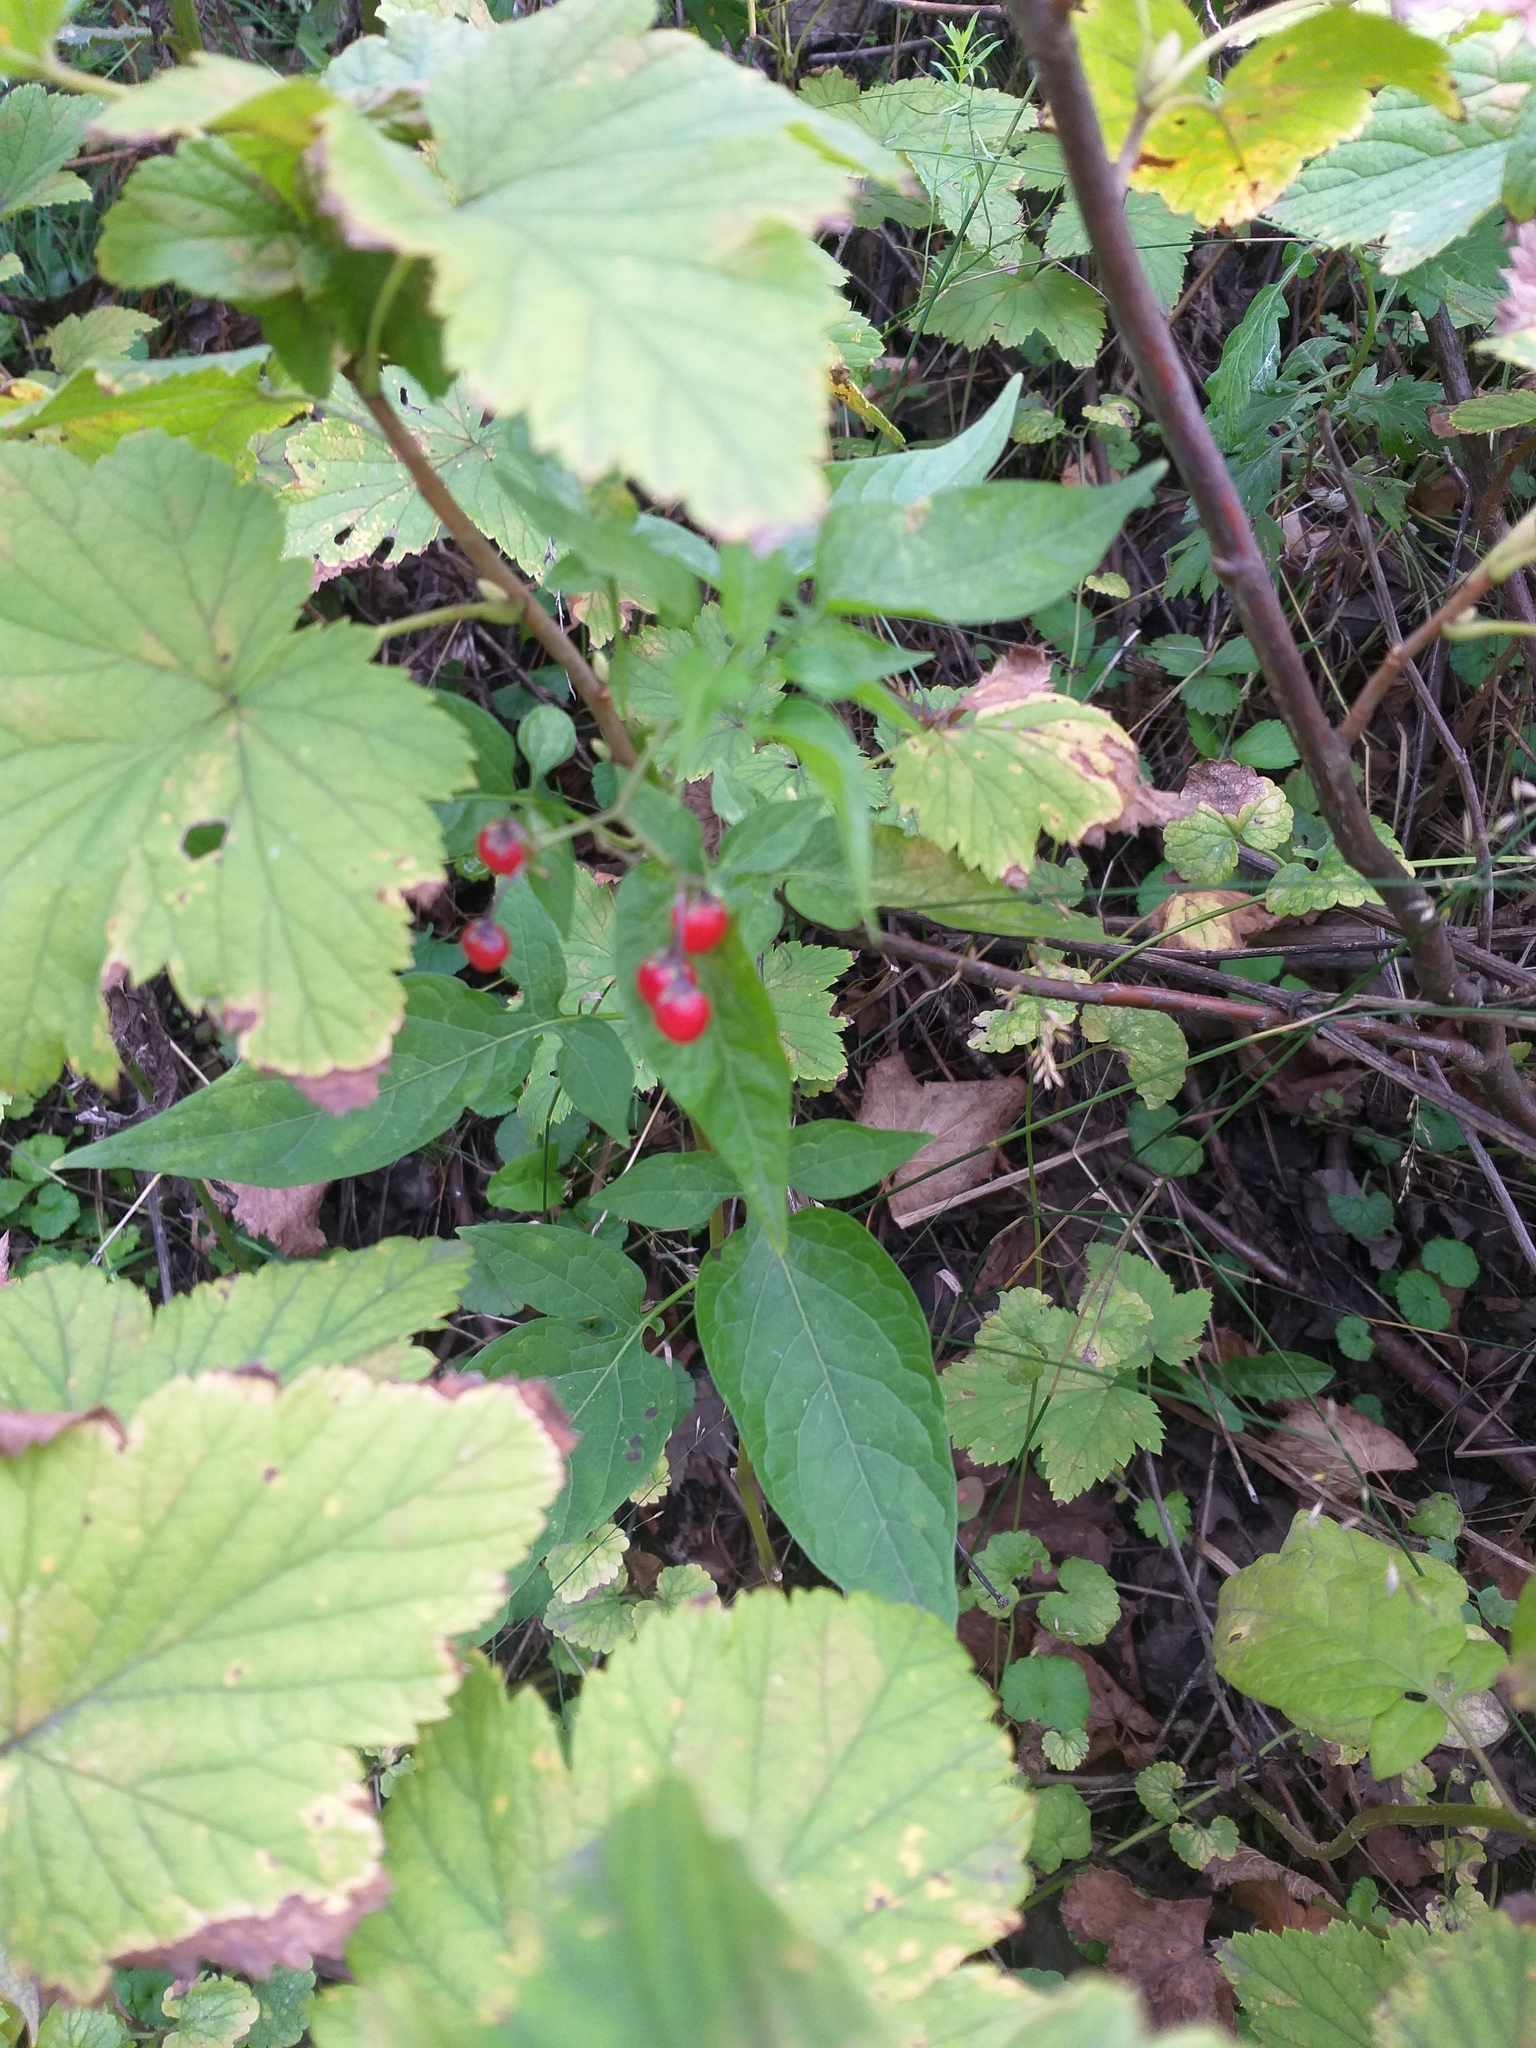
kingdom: Plantae
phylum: Tracheophyta
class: Magnoliopsida
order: Solanales
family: Solanaceae
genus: Solanum
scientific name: Solanum dulcamara
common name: Climbing nightshade
